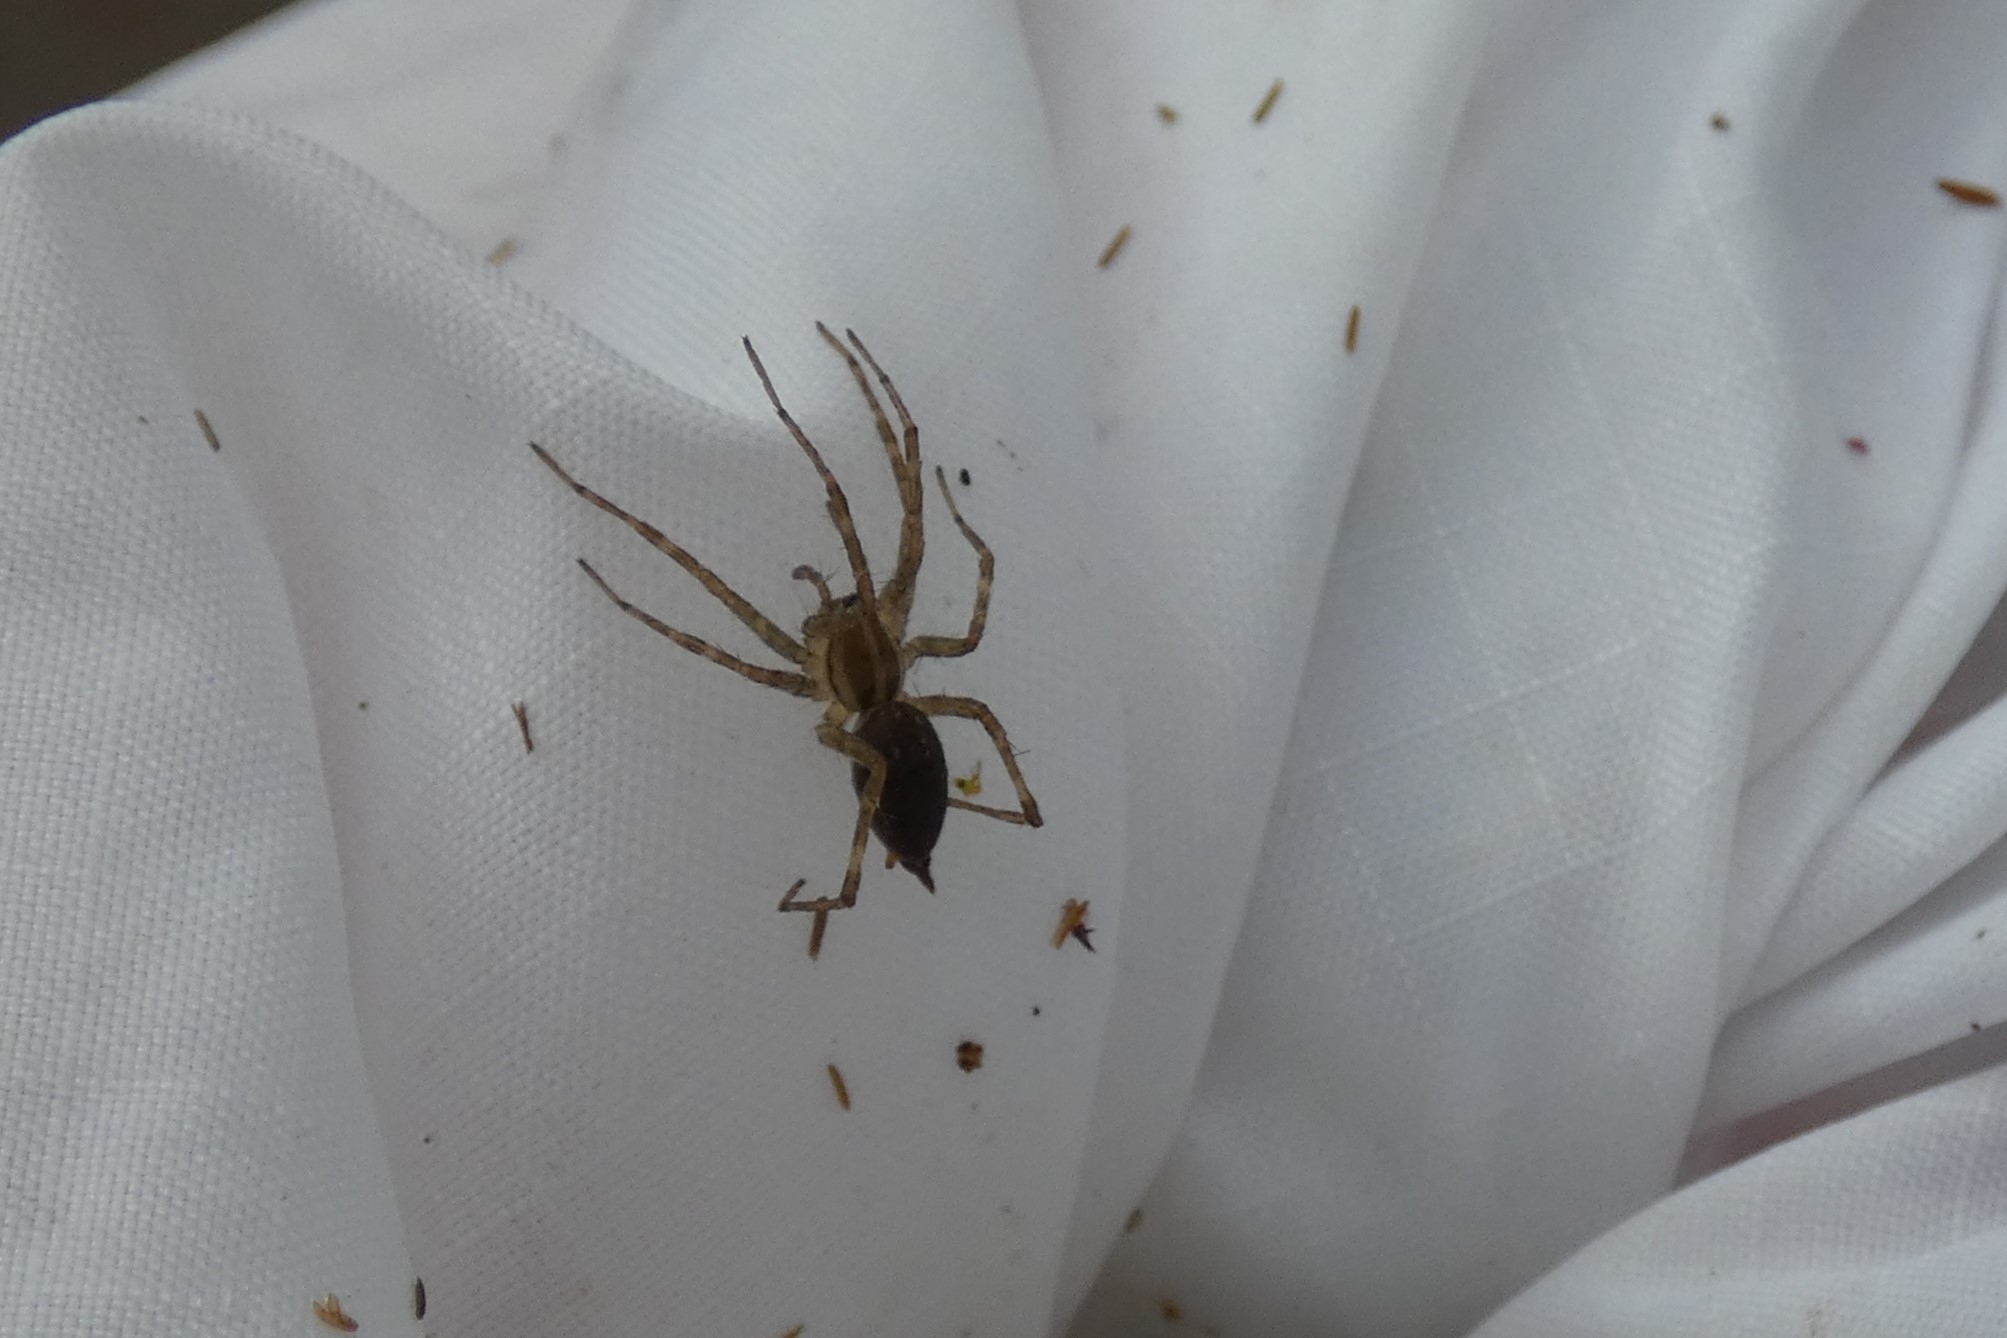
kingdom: Animalia
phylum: Arthropoda
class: Arachnida
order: Araneae
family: Agelenidae
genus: Agelenopsis
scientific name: Agelenopsis
